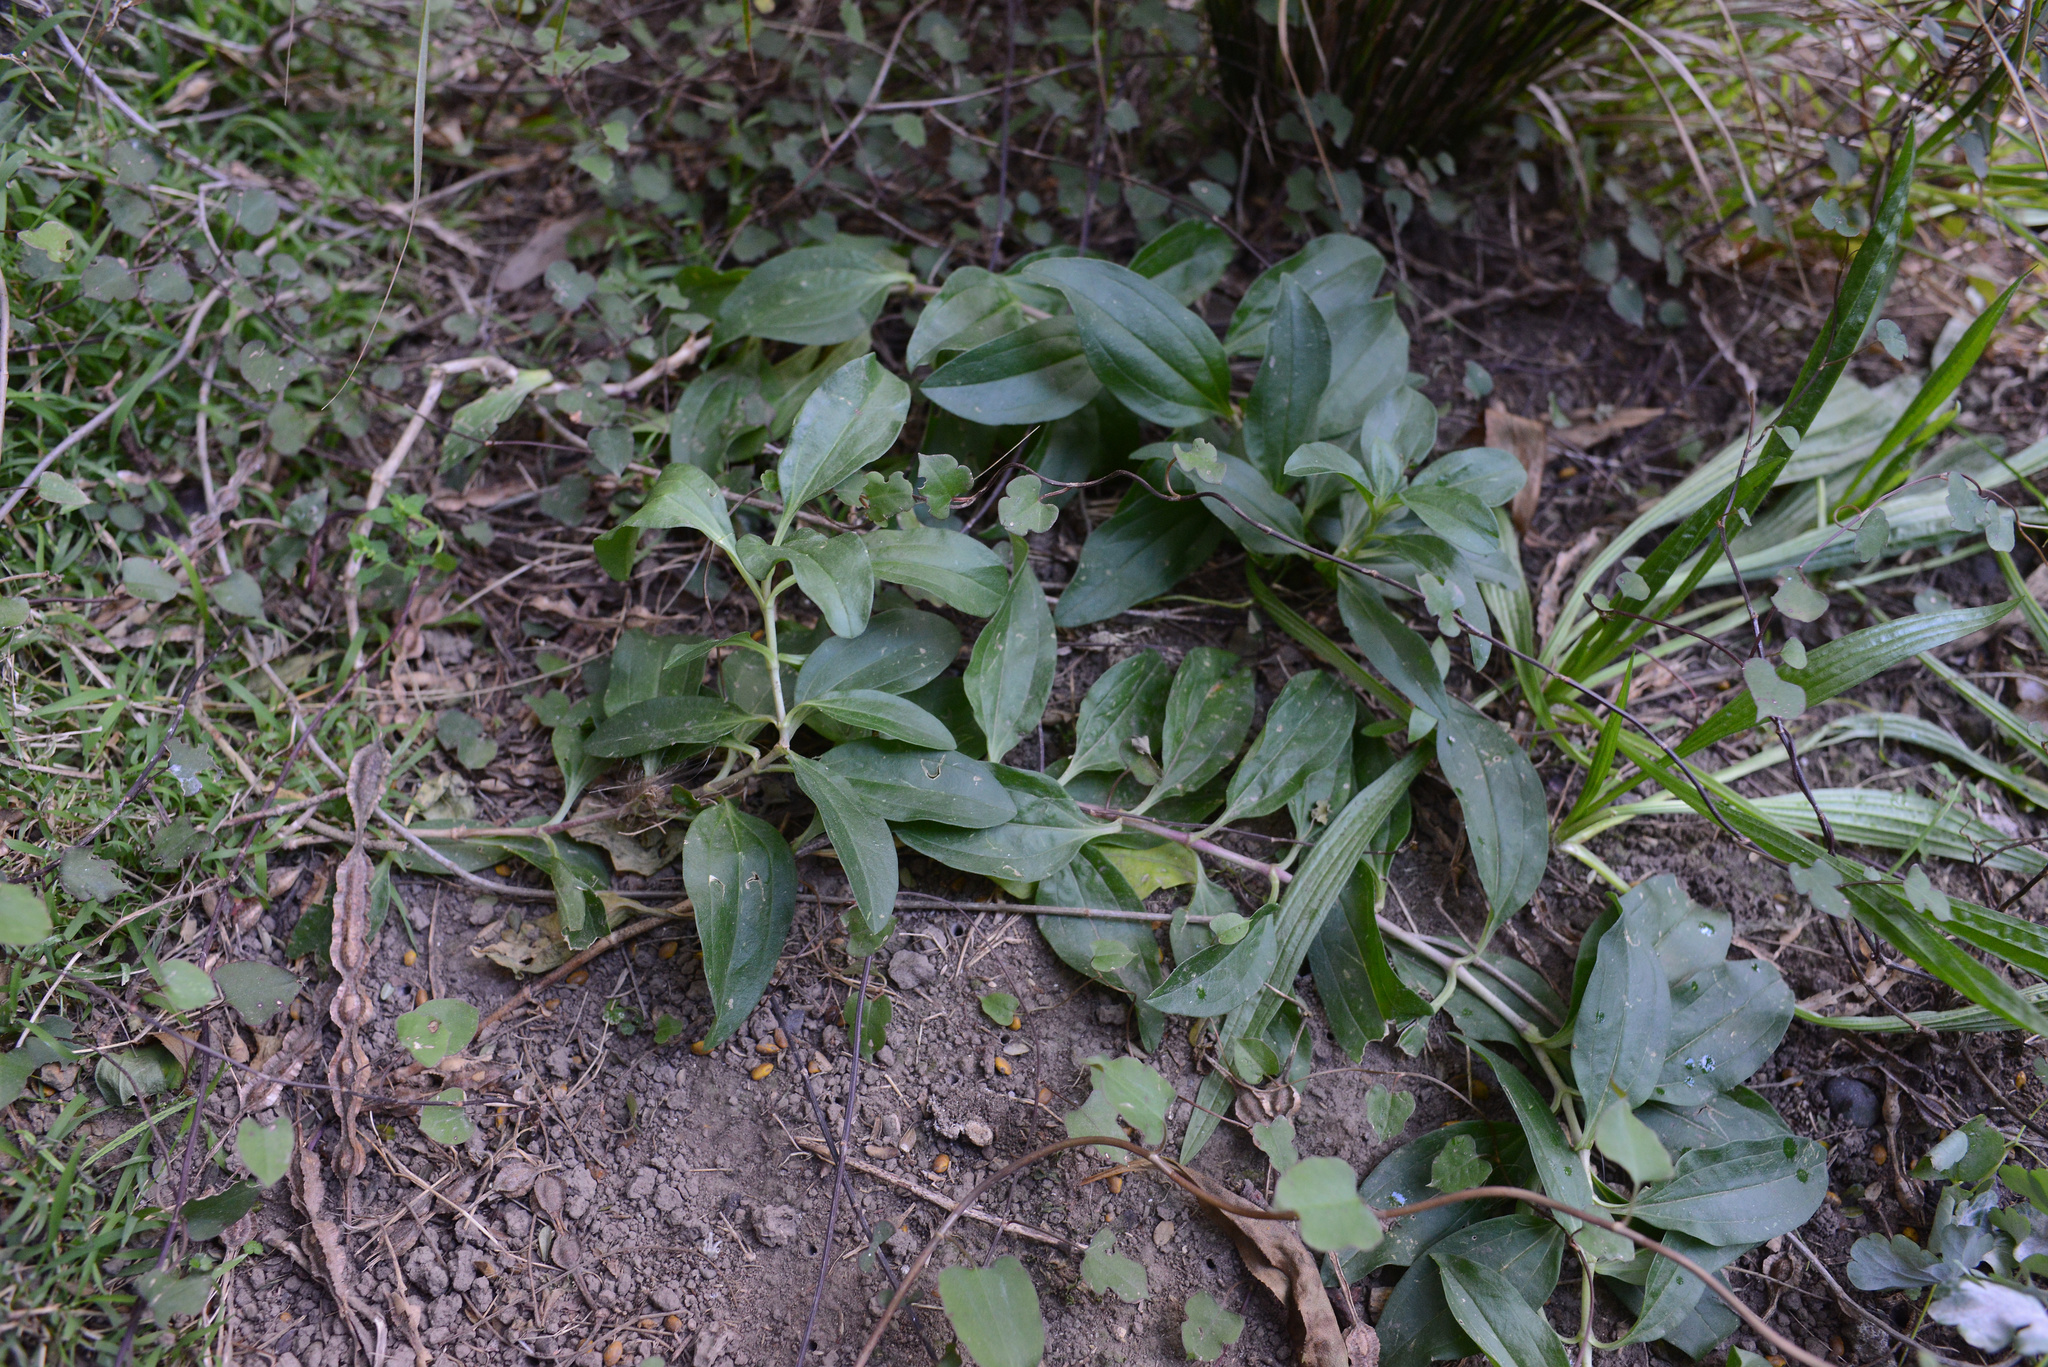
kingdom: Plantae
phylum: Tracheophyta
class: Liliopsida
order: Liliales
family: Alstroemeriaceae
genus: Alstroemeria
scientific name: Alstroemeria aurea
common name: Peruvian lily
